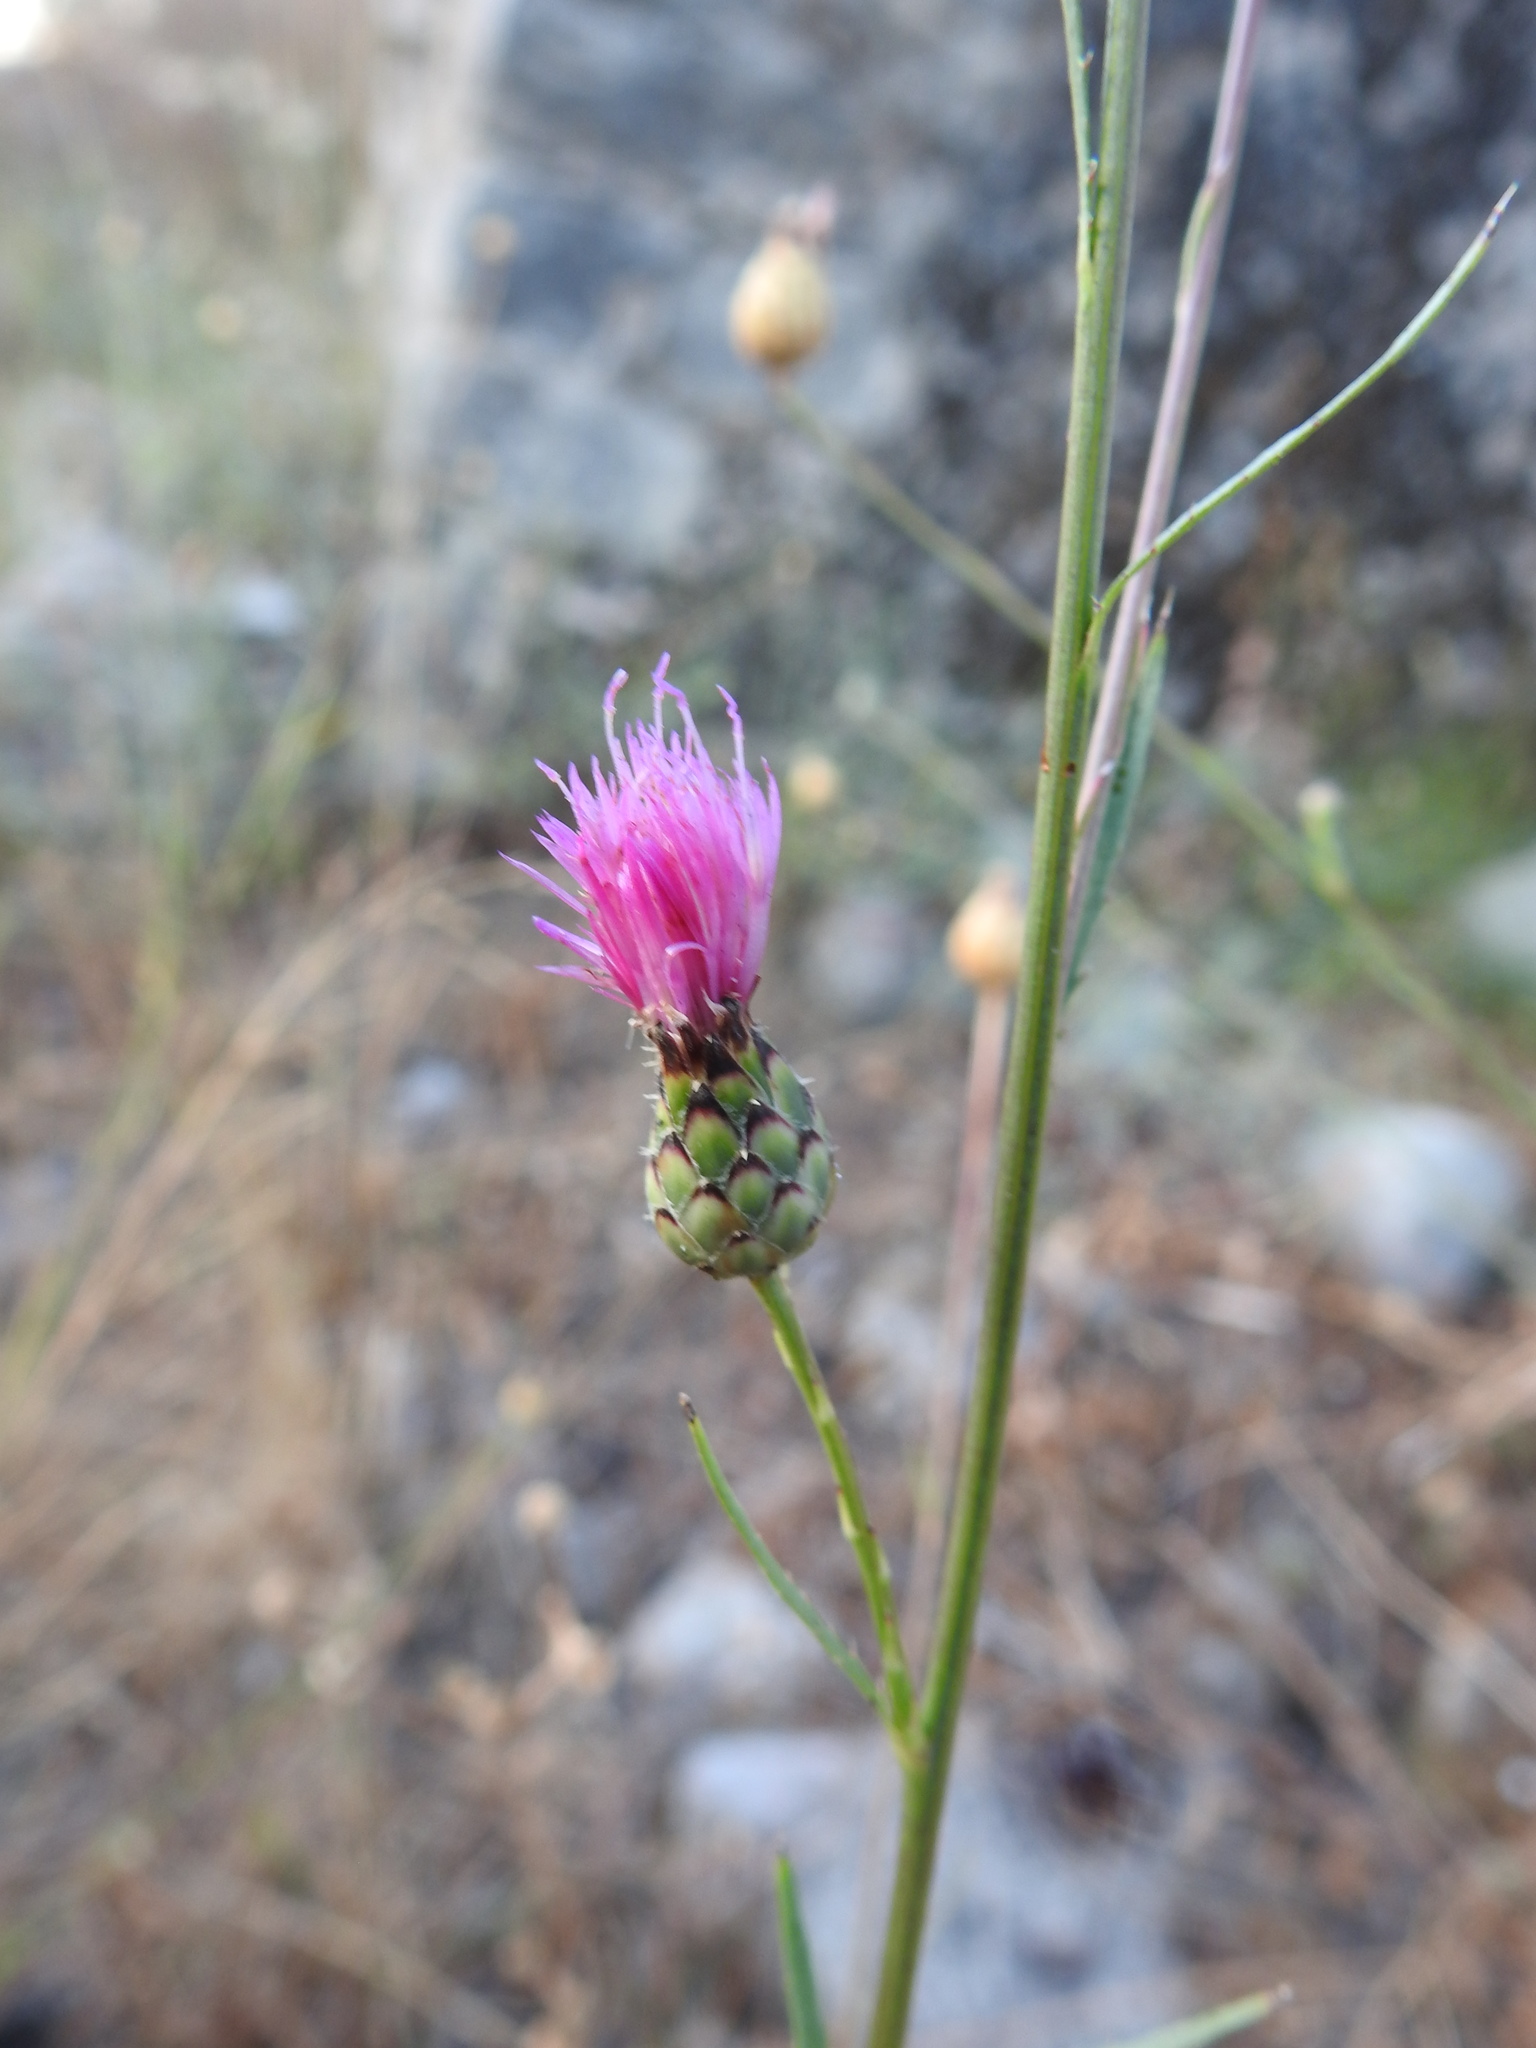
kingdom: Plantae
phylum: Tracheophyta
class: Magnoliopsida
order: Asterales
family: Asteraceae
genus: Mantisalca
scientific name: Mantisalca salmantica
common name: Dagger flower
